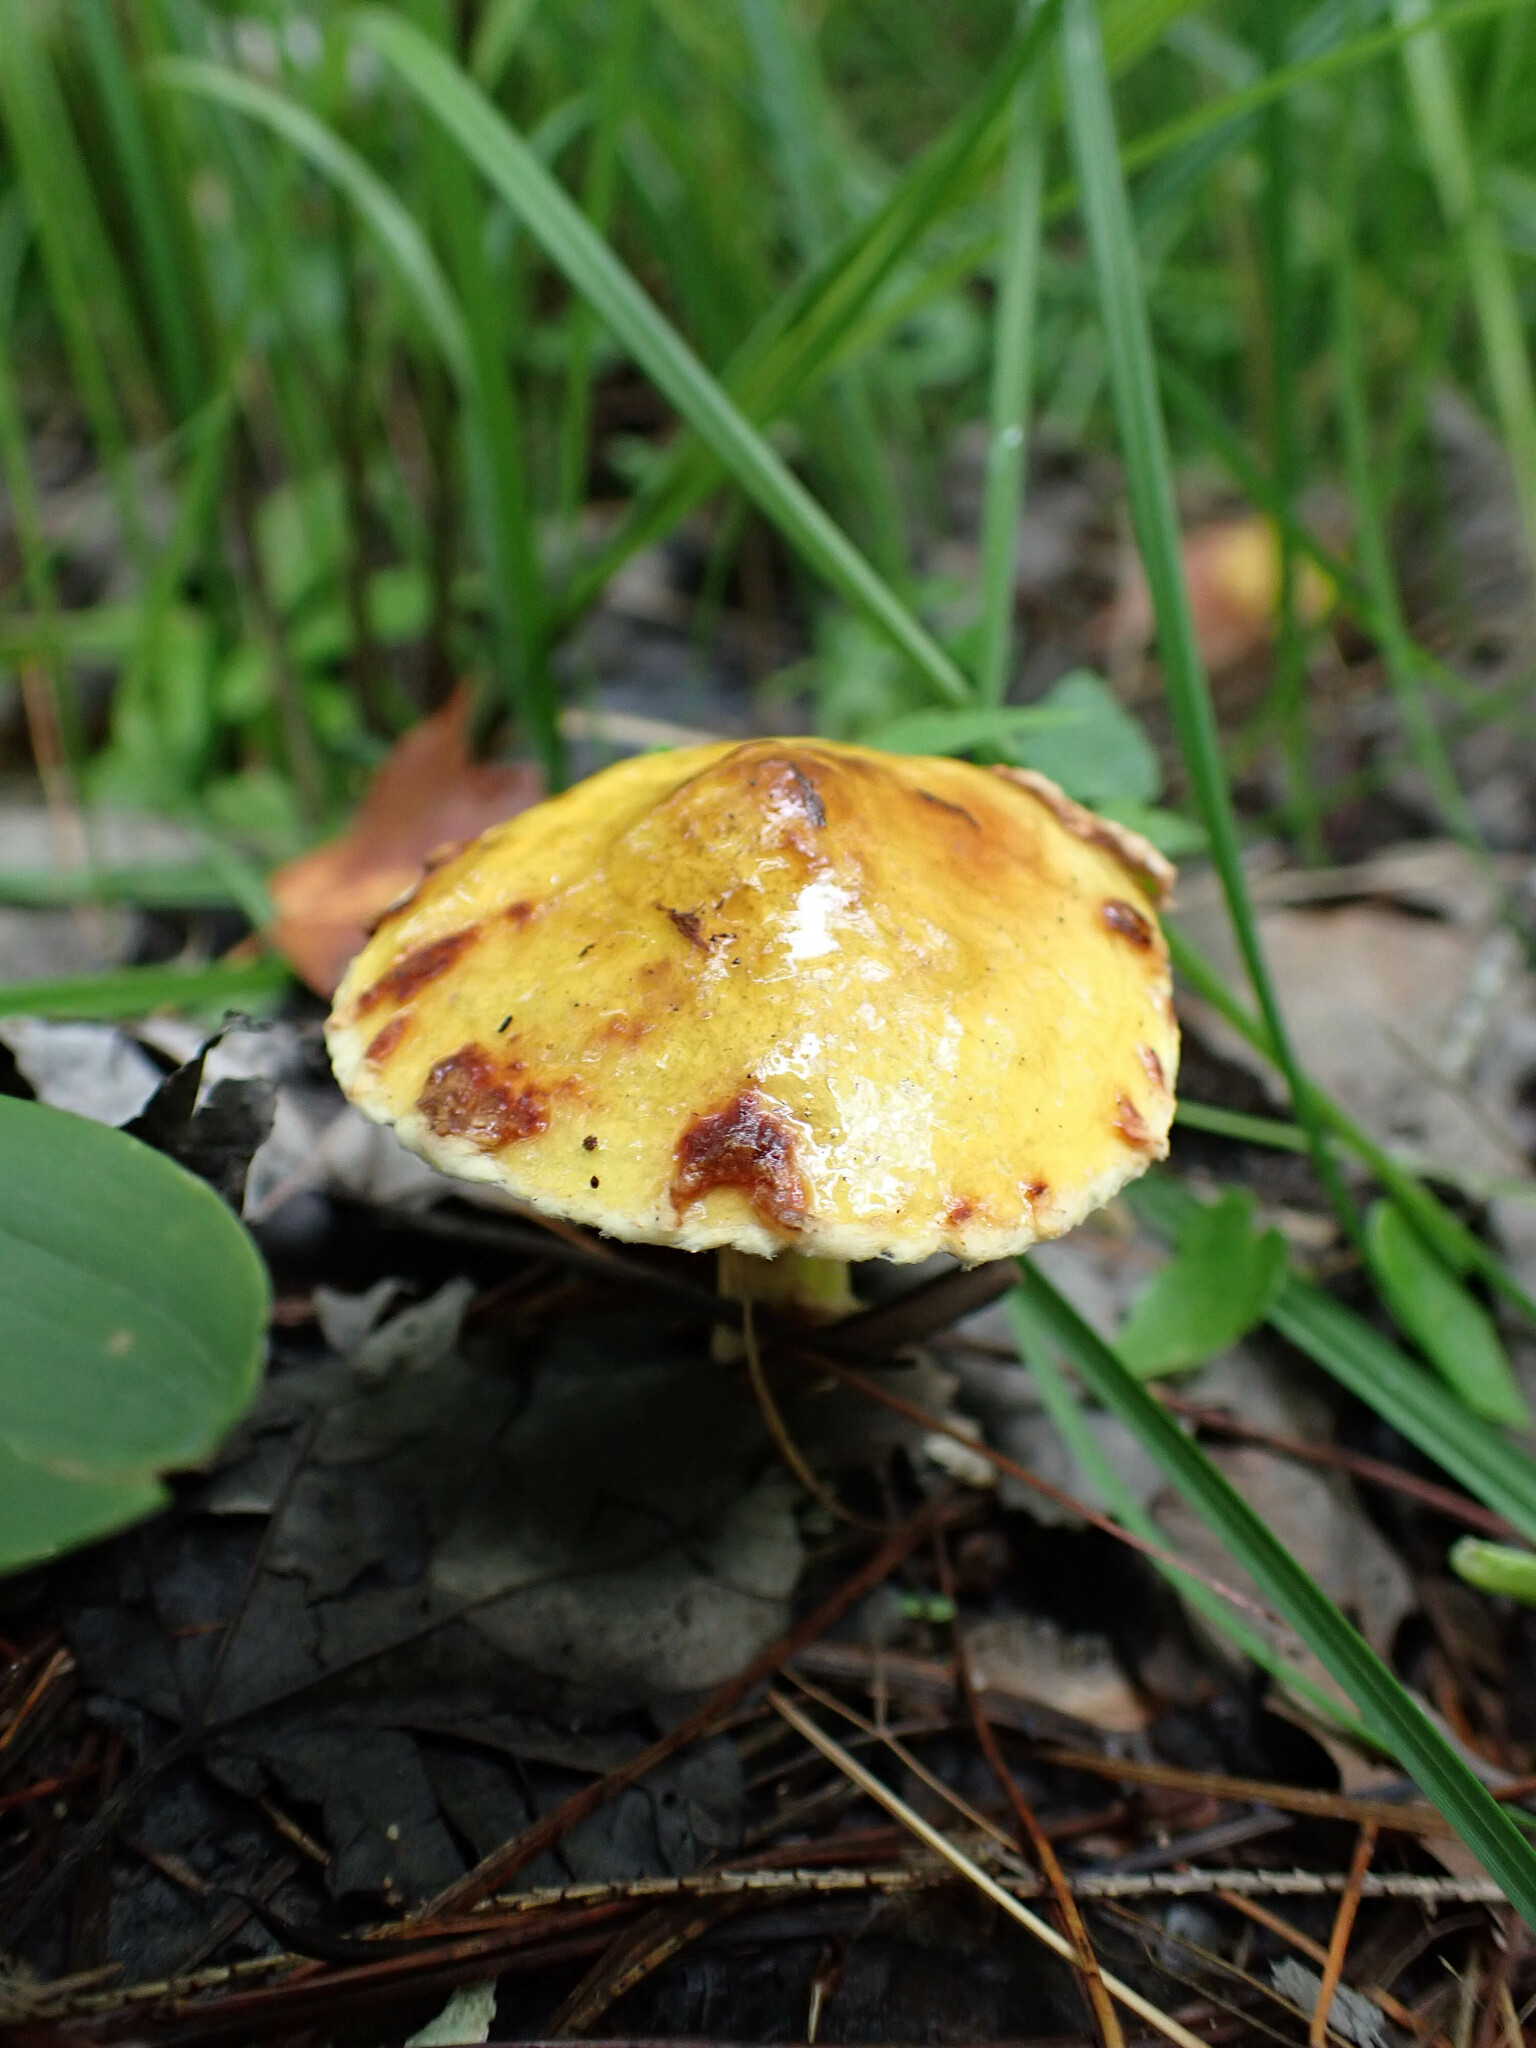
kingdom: Fungi
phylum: Basidiomycota
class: Agaricomycetes
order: Boletales
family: Suillaceae
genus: Suillus
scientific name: Suillus americanus
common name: Chicken fat mushroom
